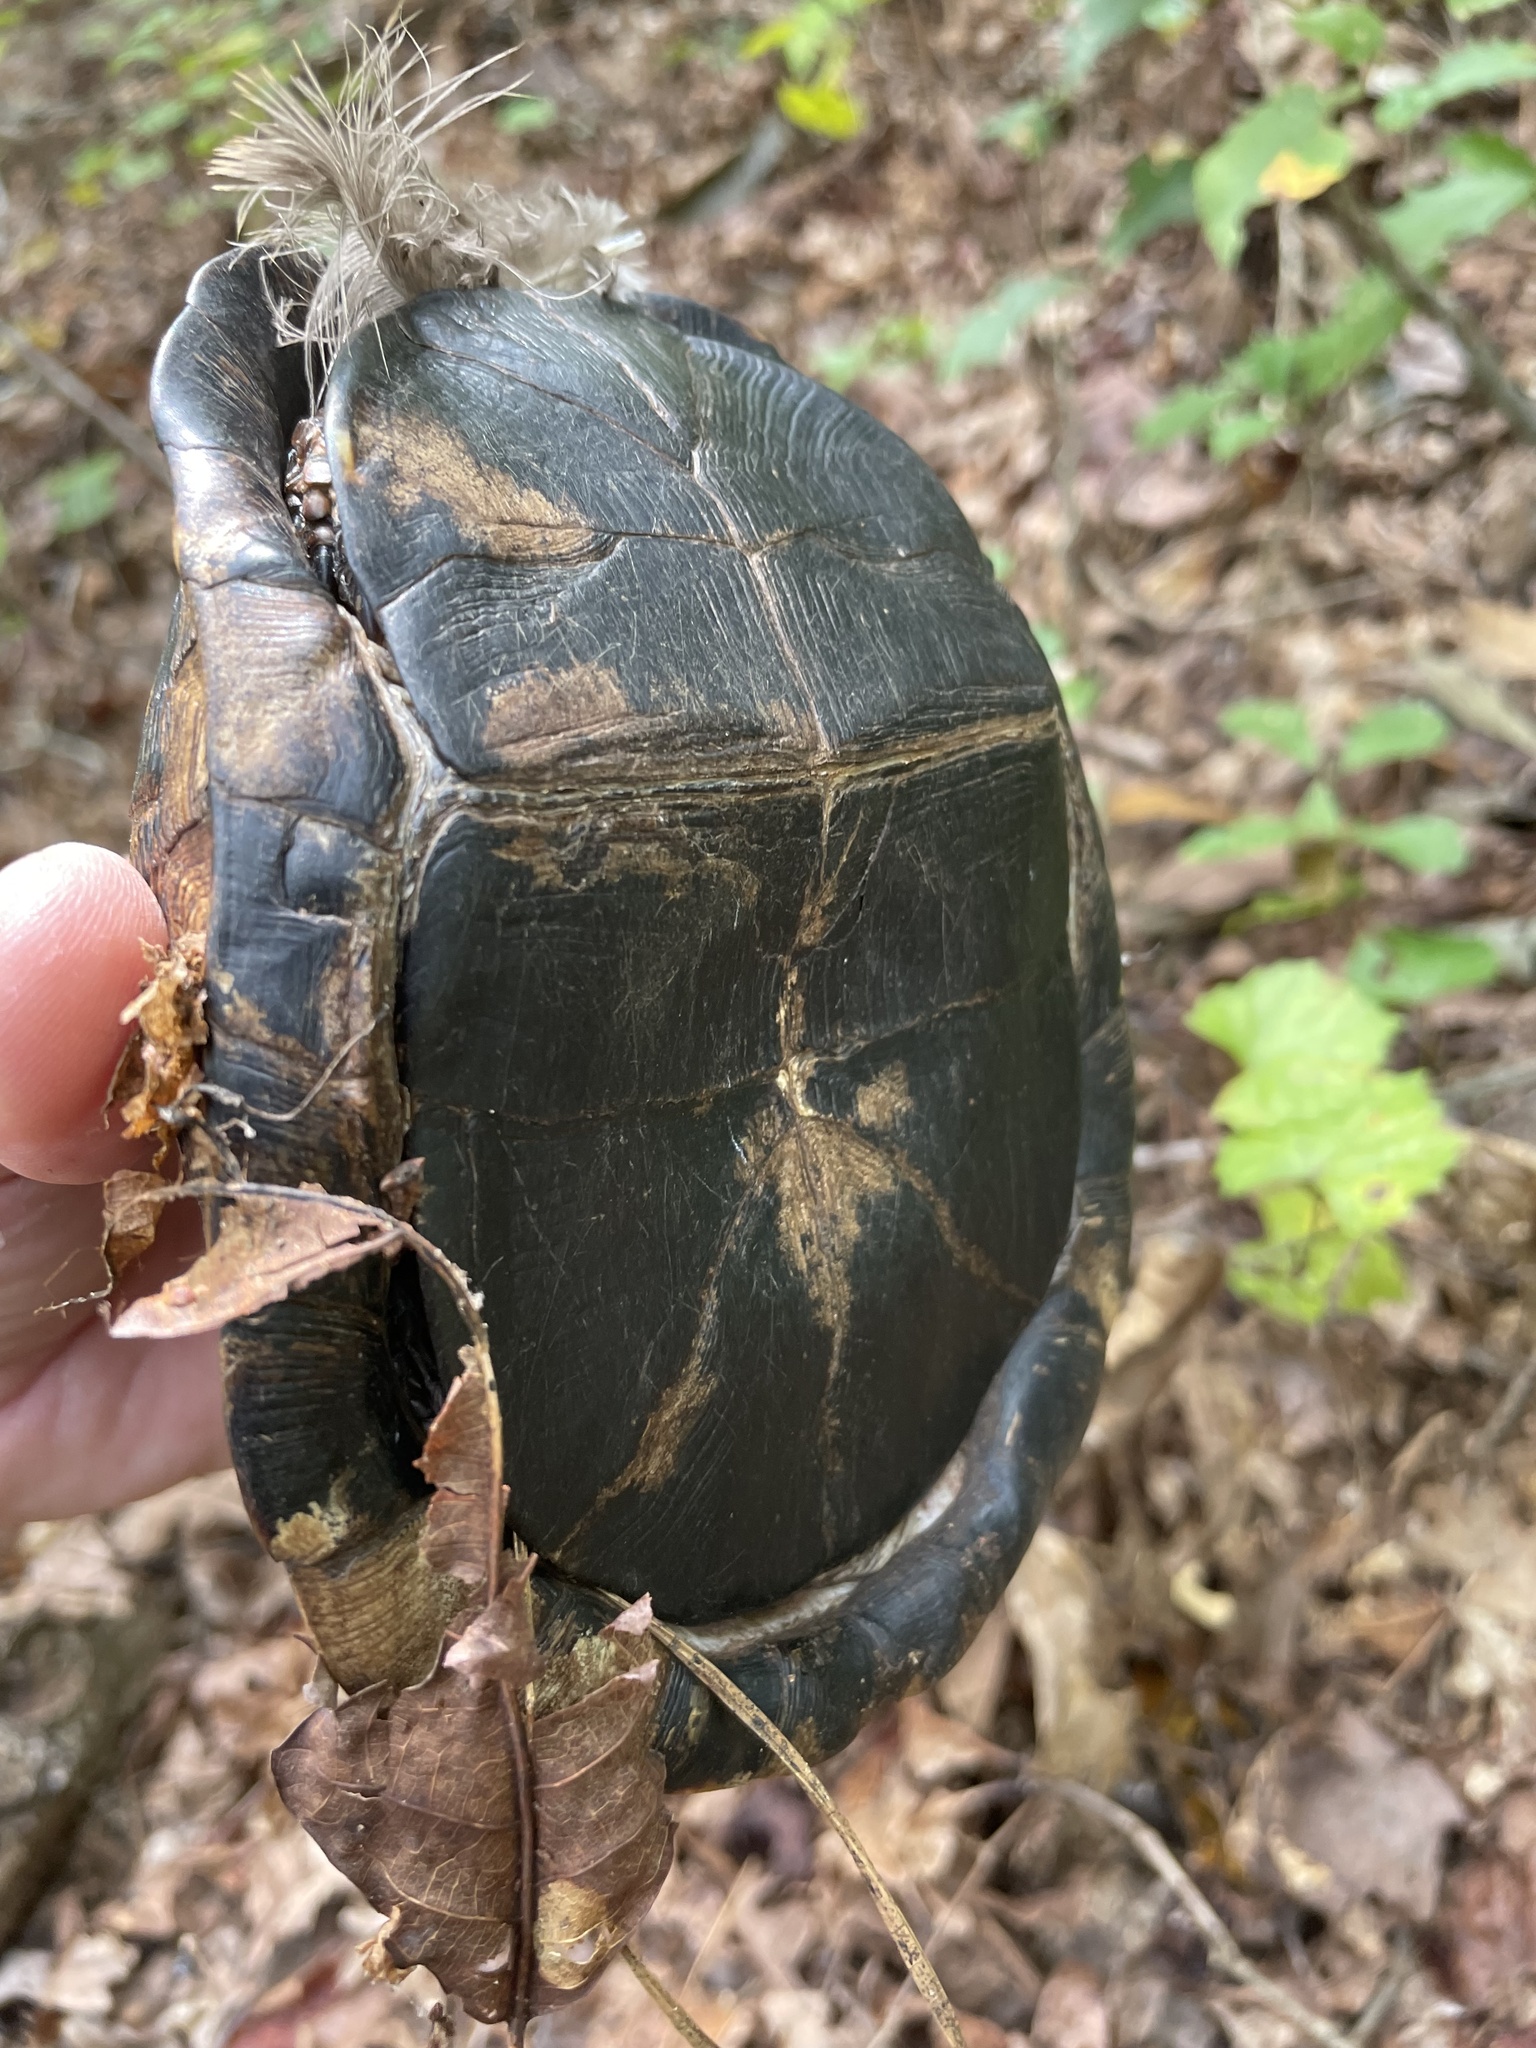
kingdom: Animalia
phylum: Chordata
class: Testudines
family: Emydidae
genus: Terrapene
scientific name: Terrapene carolina
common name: Common box turtle
